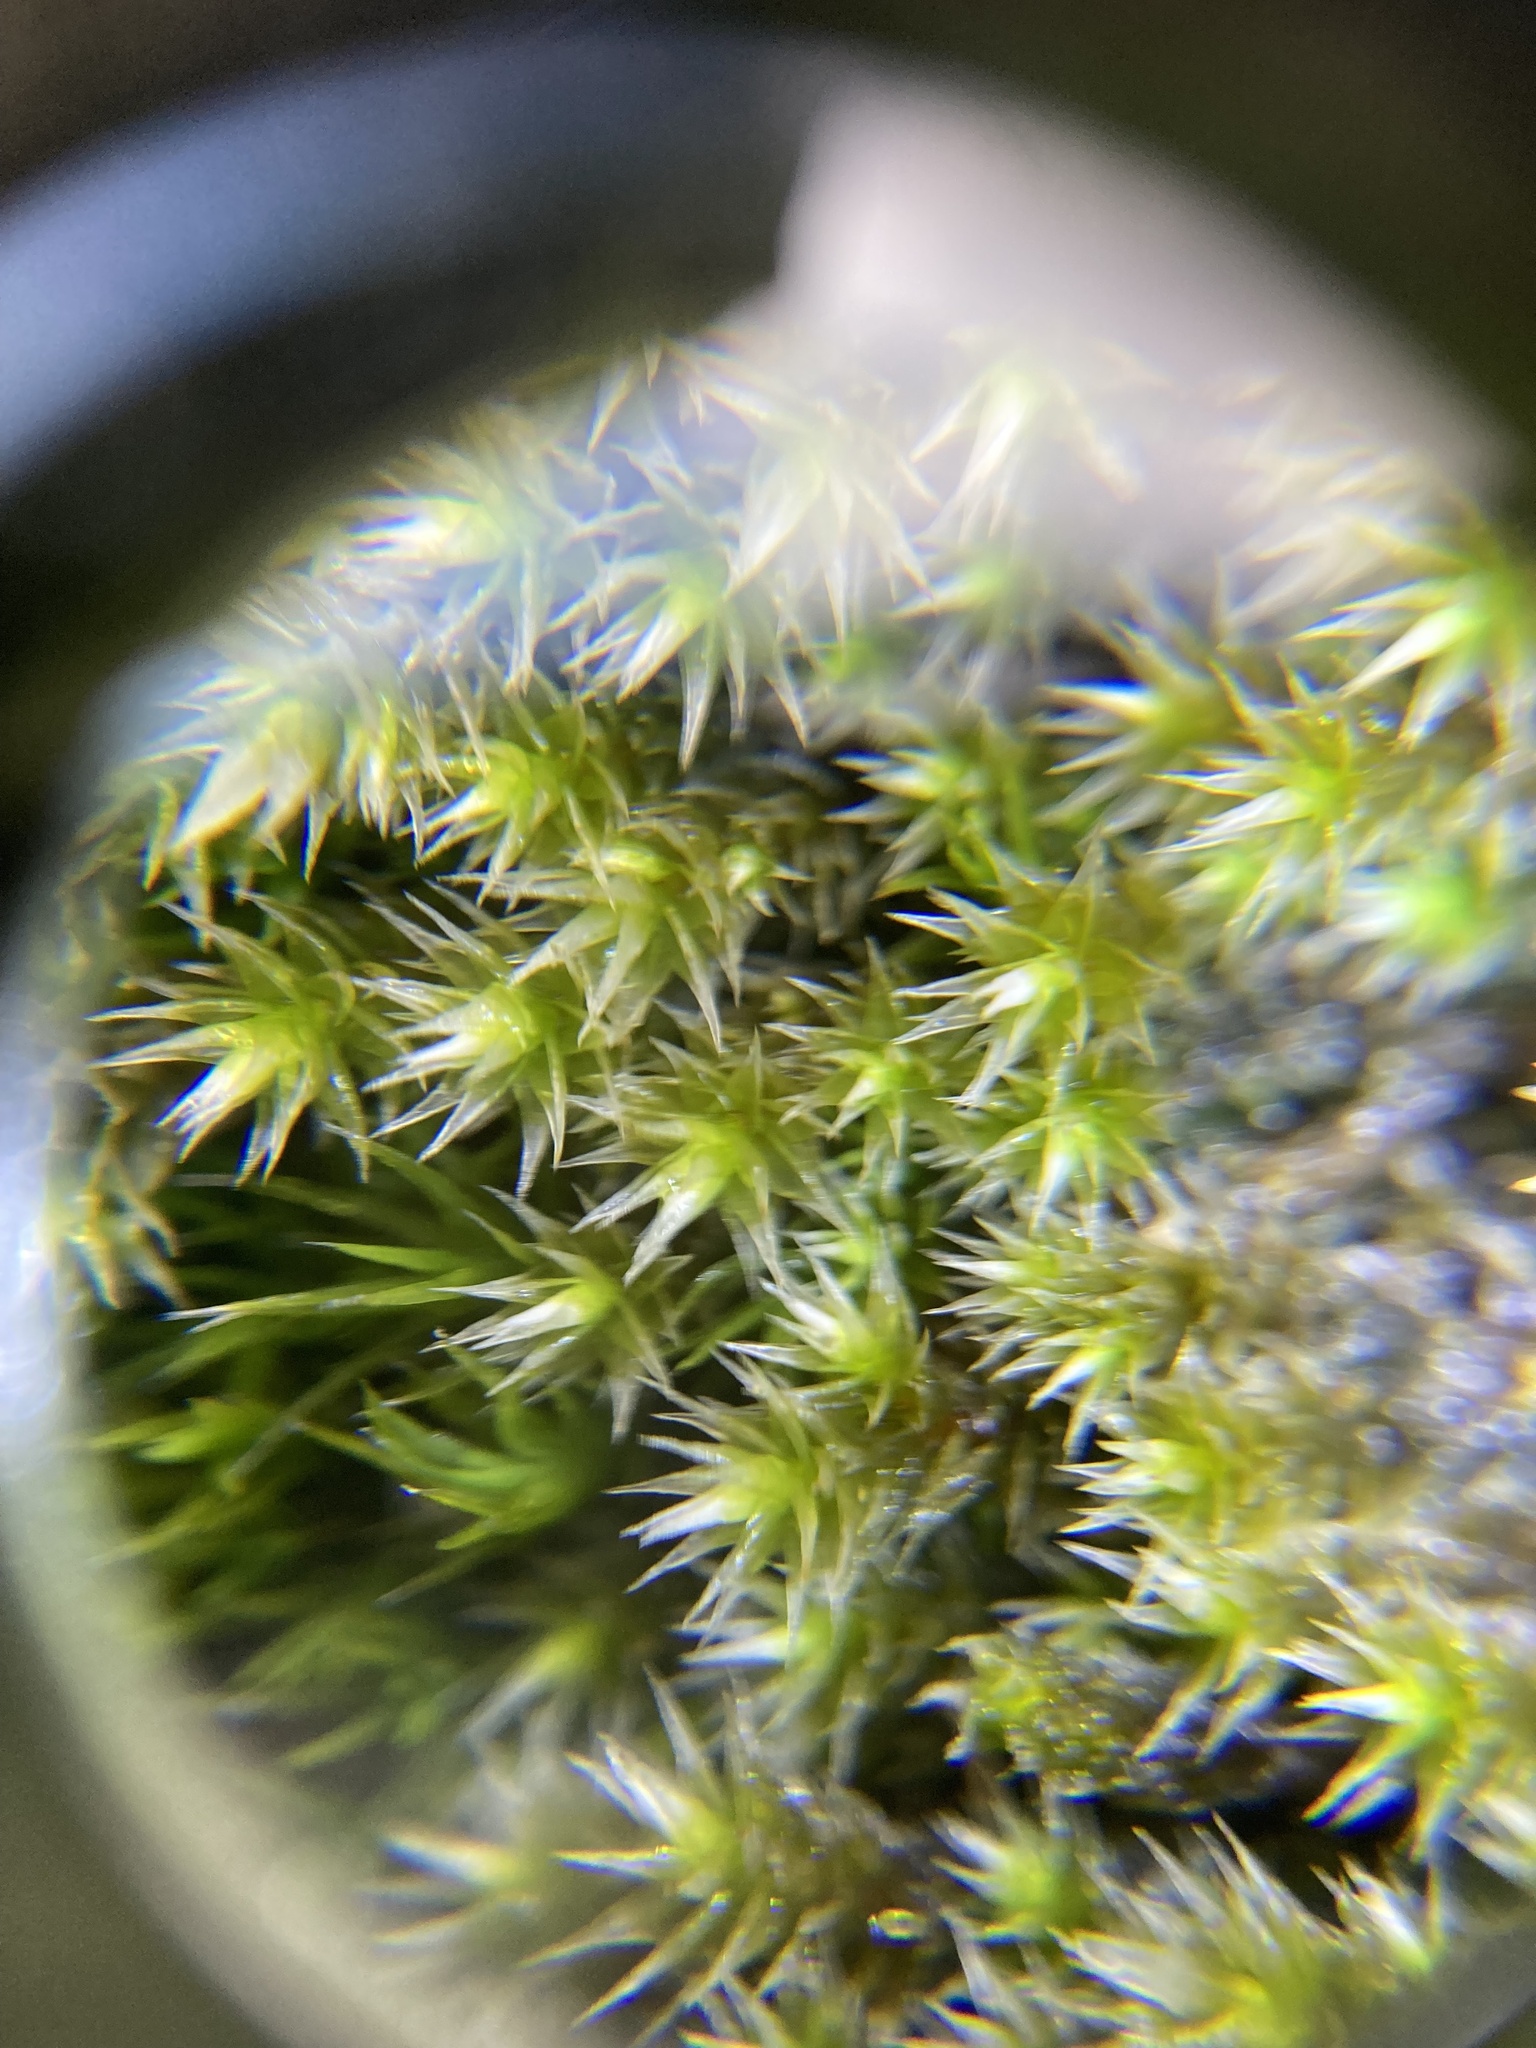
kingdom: Plantae
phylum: Bryophyta
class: Bryopsida
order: Hedwigiales
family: Hedwigiaceae
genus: Hedwigia
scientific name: Hedwigia ciliata
